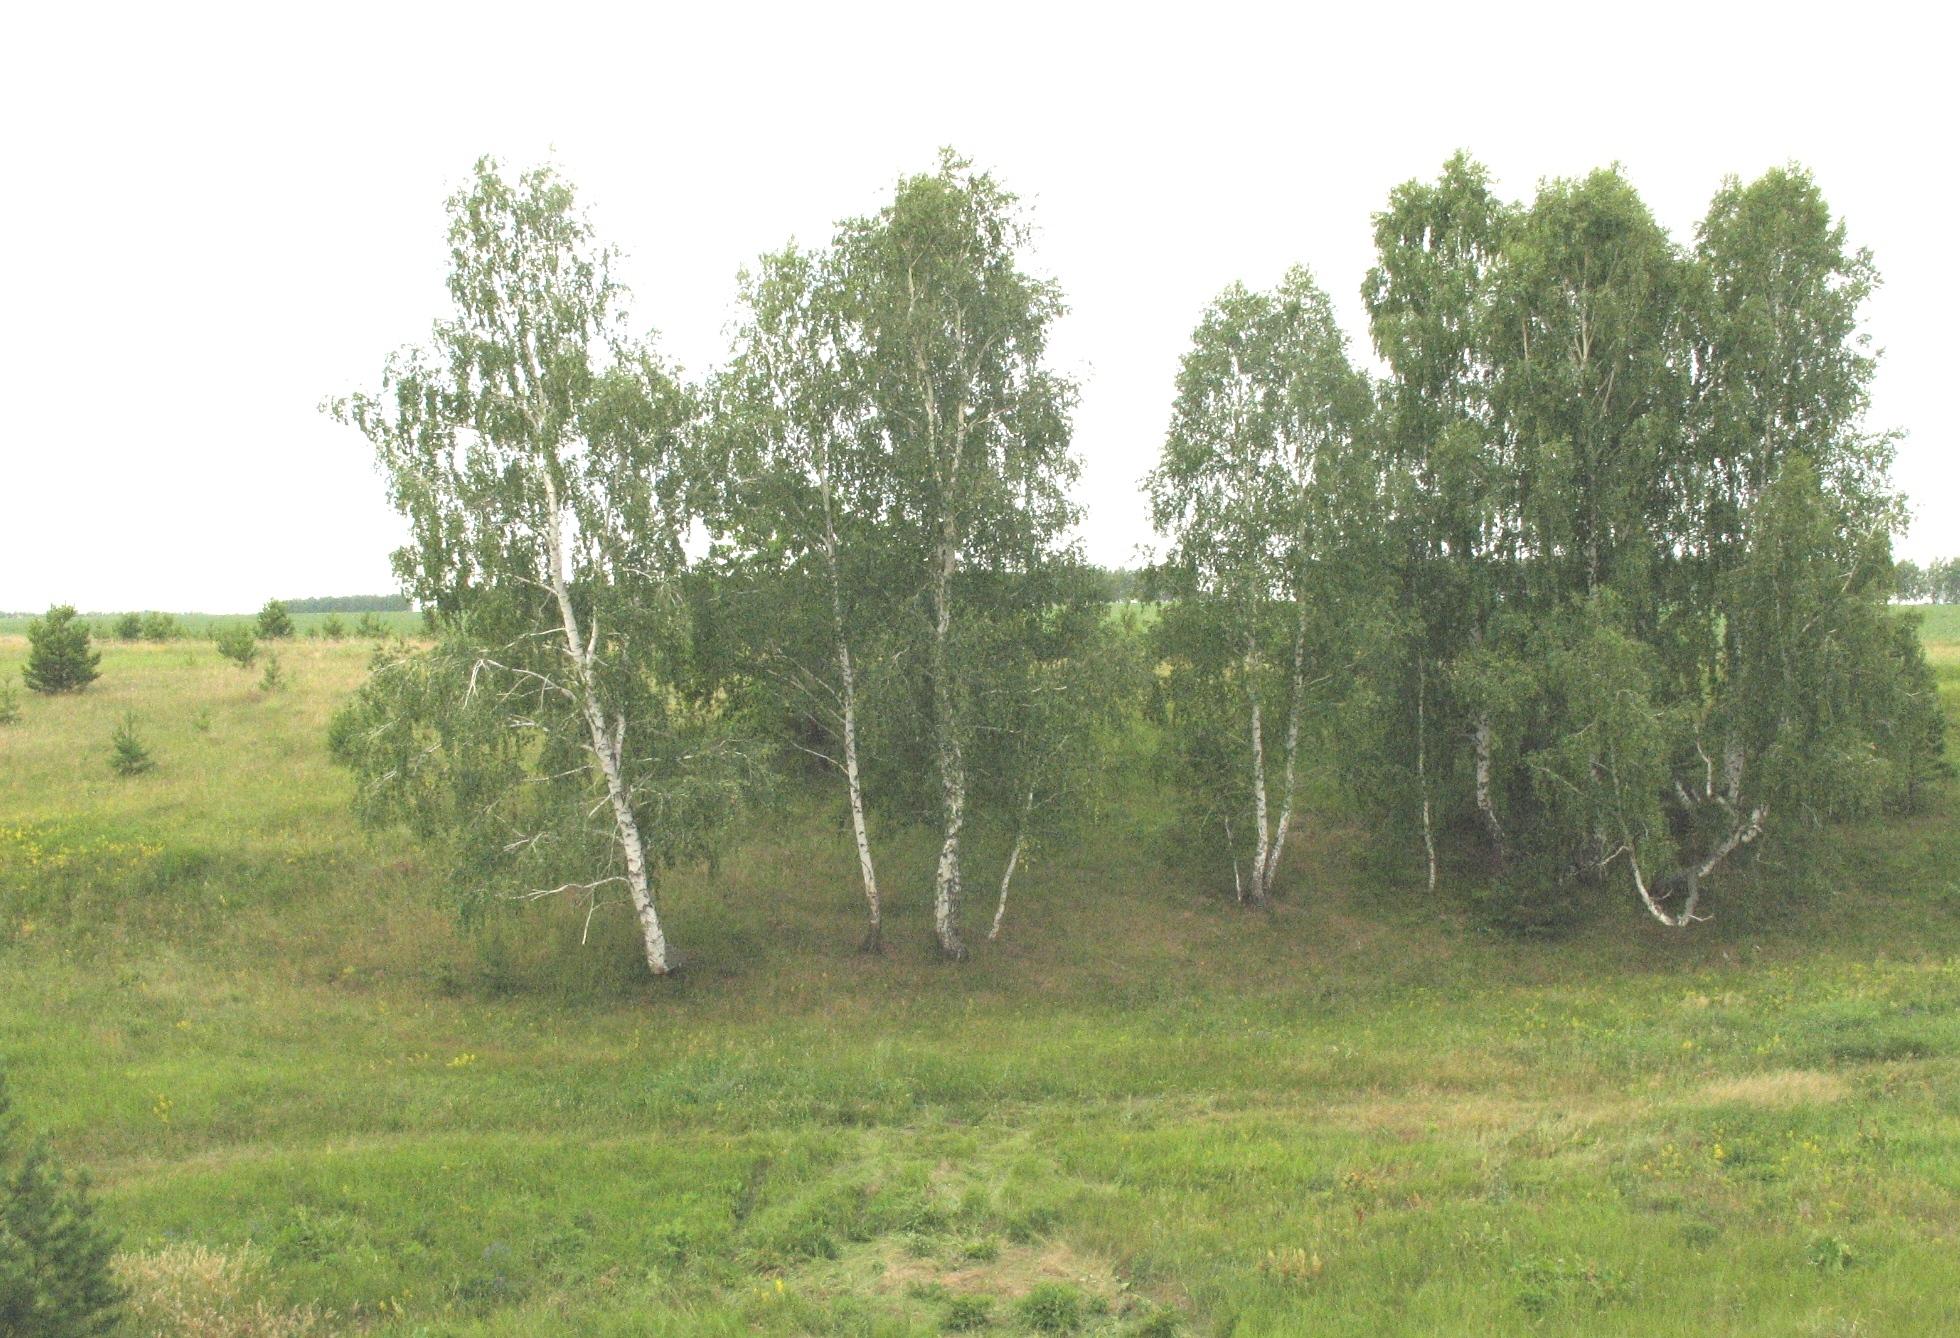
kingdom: Plantae
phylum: Tracheophyta
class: Magnoliopsida
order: Fagales
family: Betulaceae
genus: Betula
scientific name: Betula pendula
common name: Silver birch
